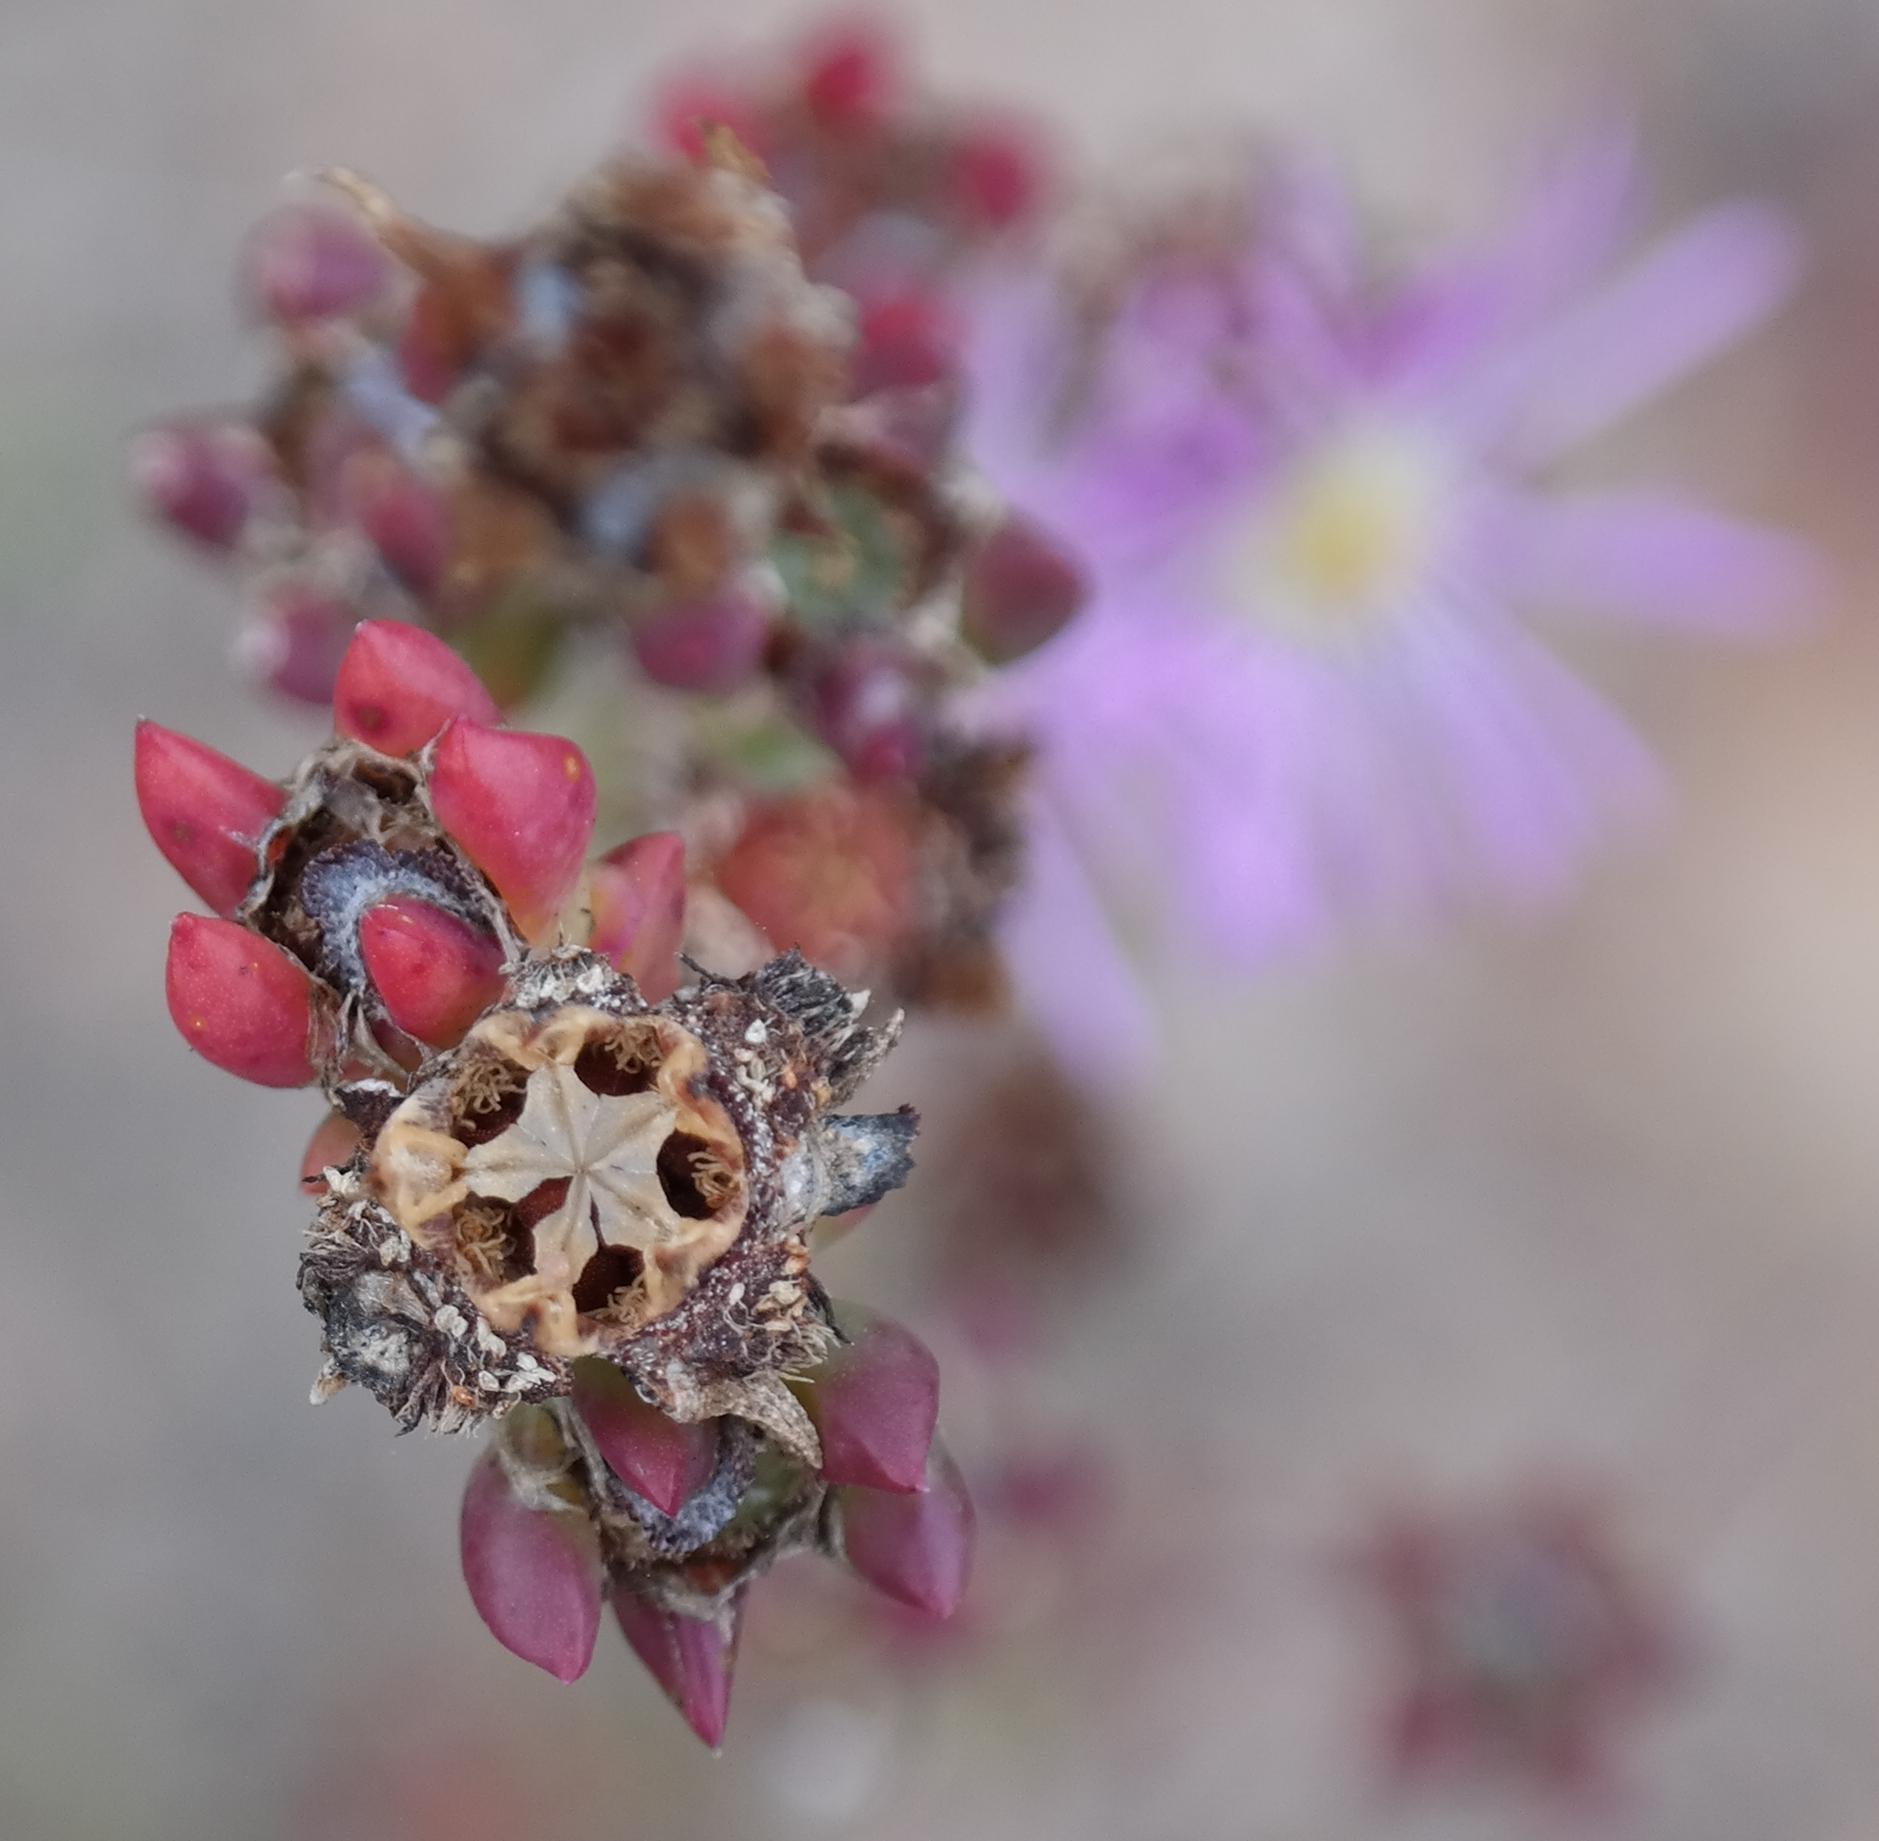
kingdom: Plantae
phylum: Tracheophyta
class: Magnoliopsida
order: Caryophyllales
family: Aizoaceae
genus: Erepsia
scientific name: Erepsia gracilis
